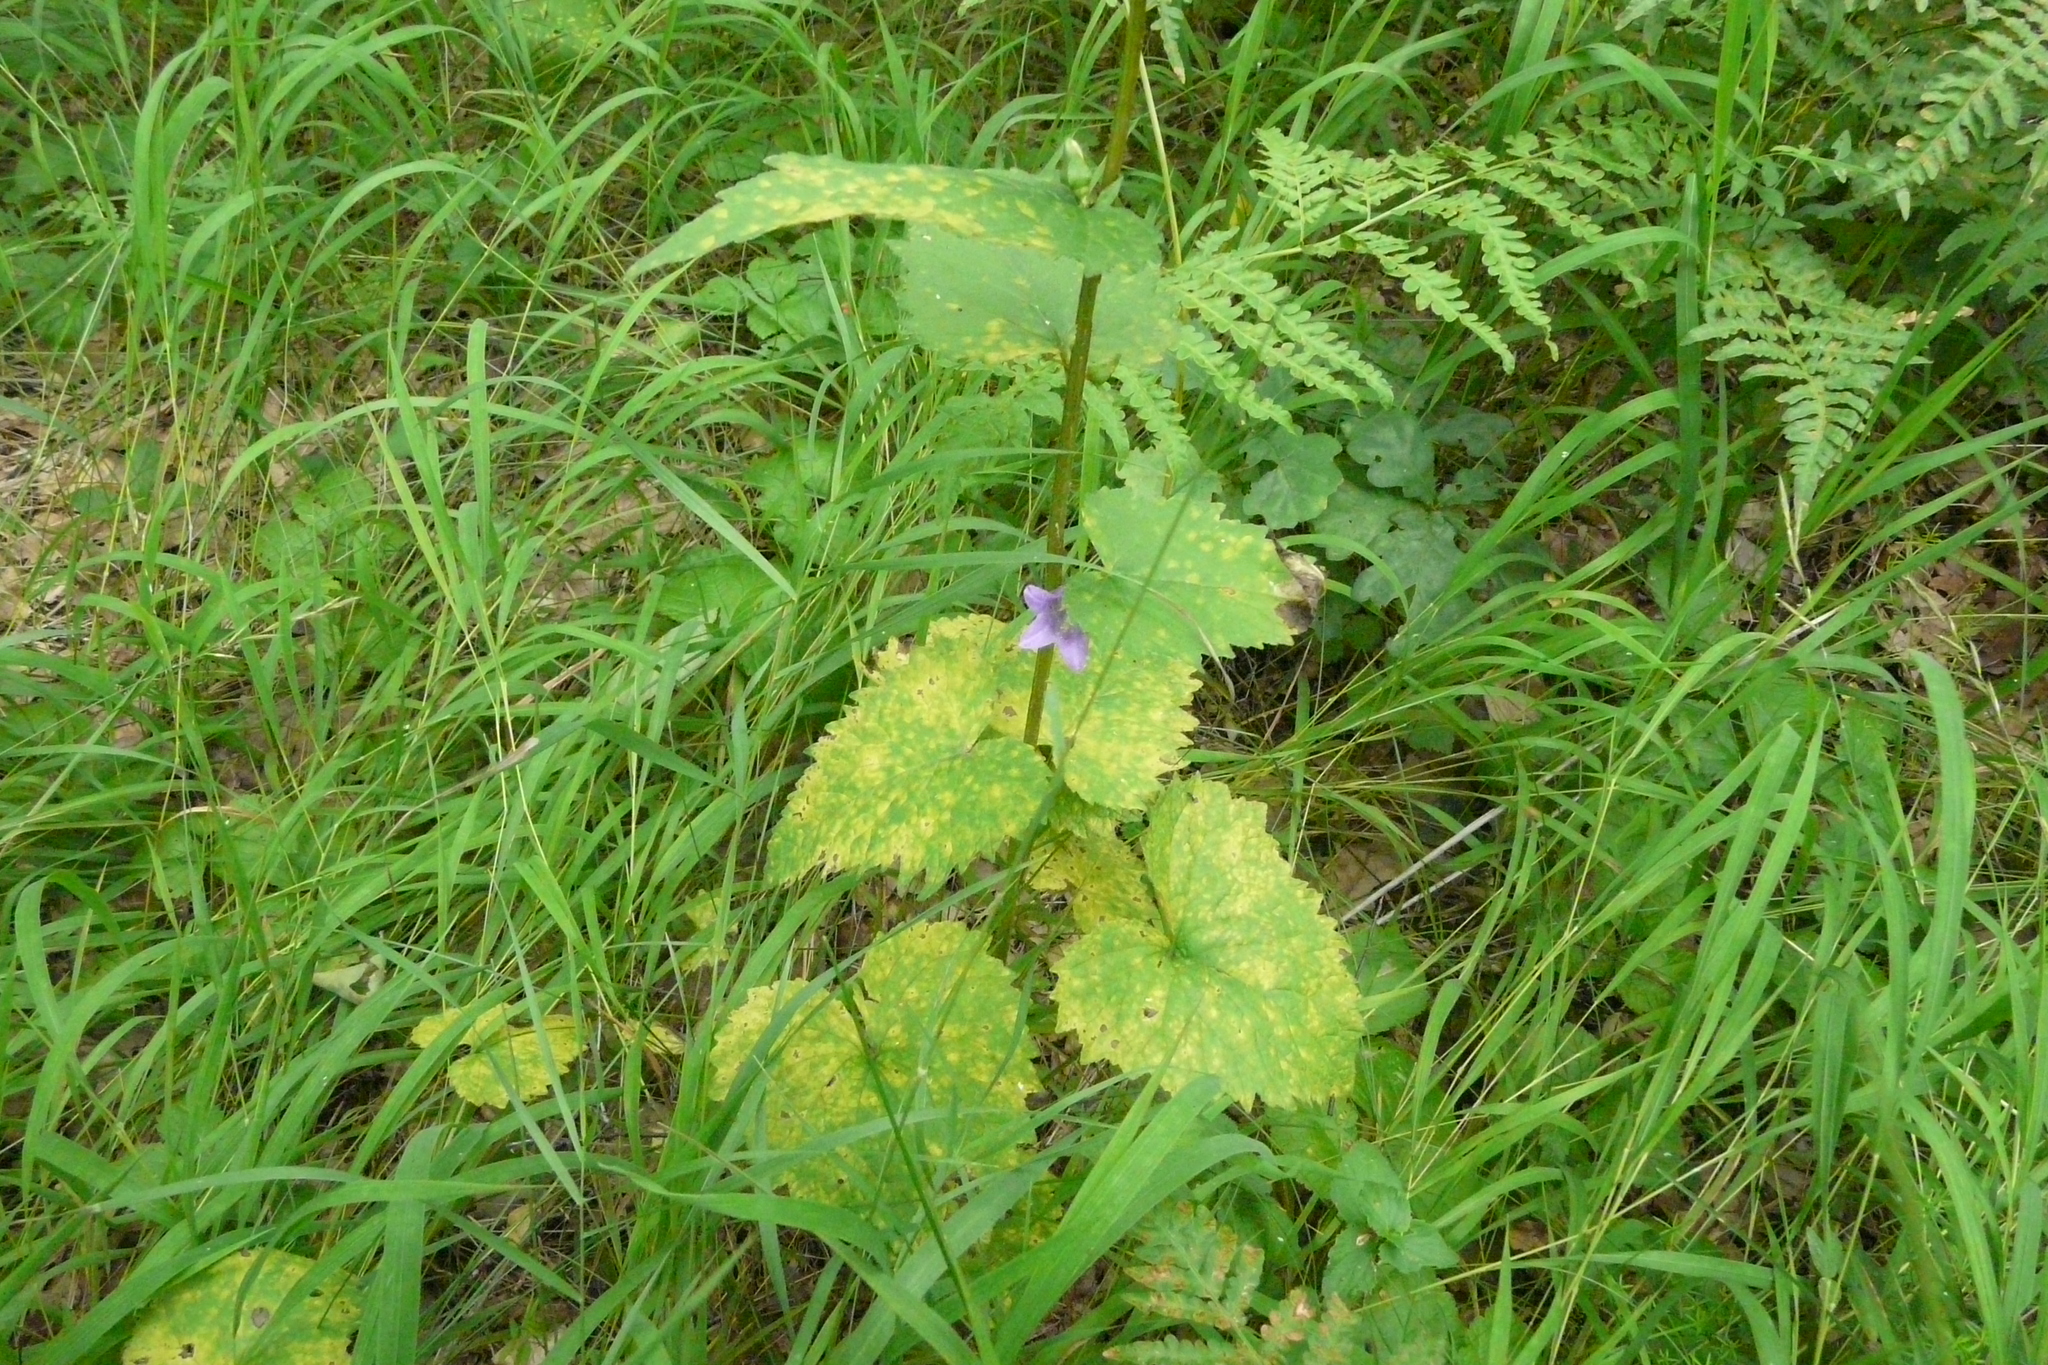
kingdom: Plantae
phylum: Tracheophyta
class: Magnoliopsida
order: Asterales
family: Campanulaceae
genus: Campanula
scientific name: Campanula trachelium
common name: Nettle-leaved bellflower
